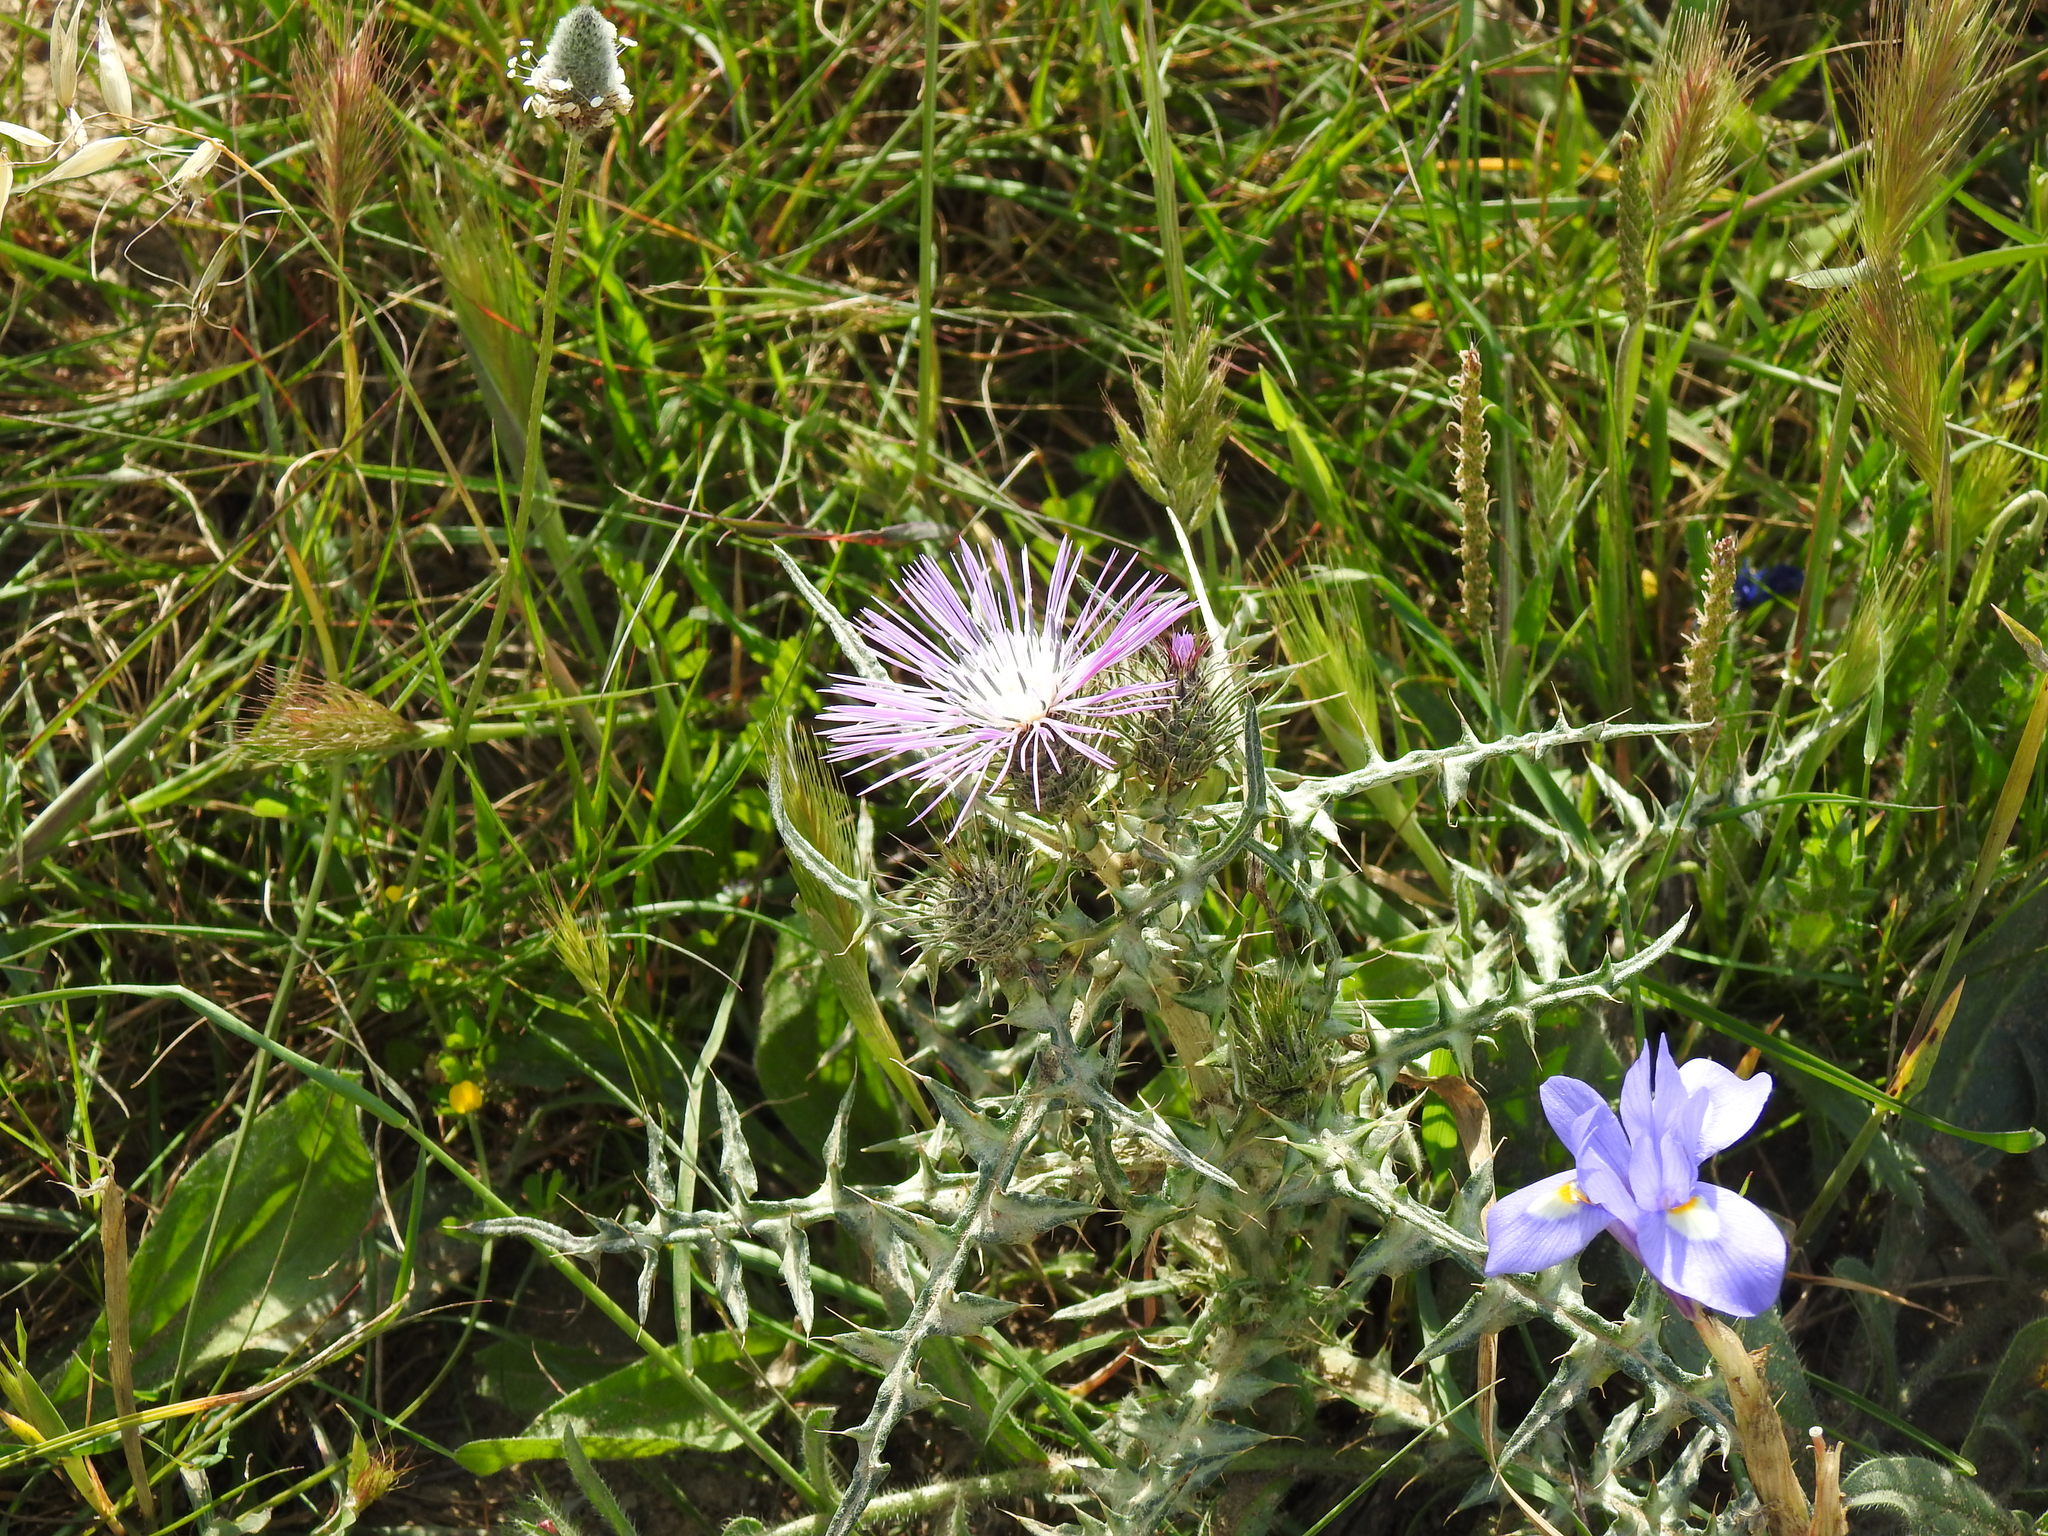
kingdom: Plantae
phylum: Tracheophyta
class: Magnoliopsida
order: Asterales
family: Asteraceae
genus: Galactites
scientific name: Galactites tomentosa
